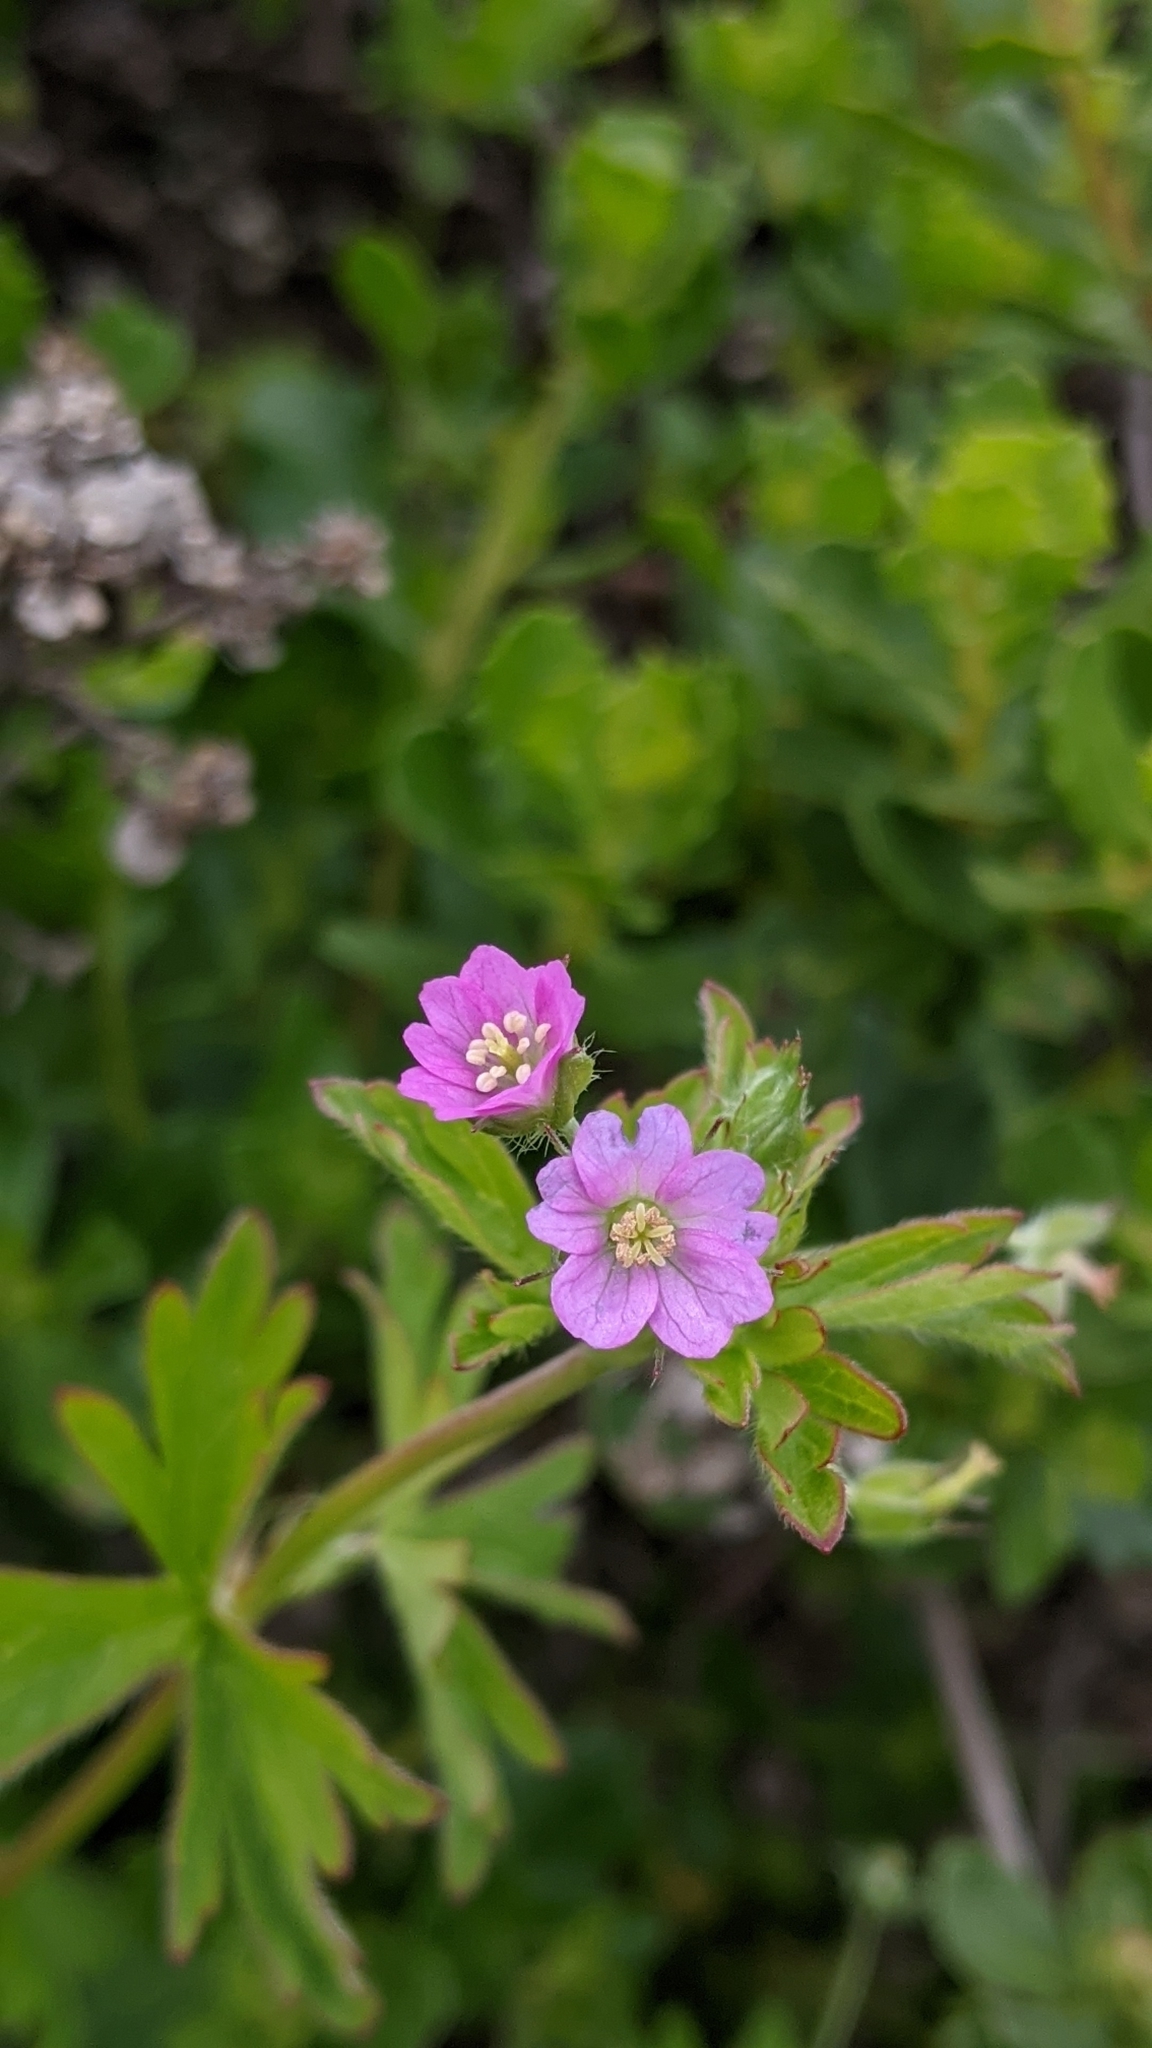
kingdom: Plantae
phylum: Tracheophyta
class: Magnoliopsida
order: Geraniales
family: Geraniaceae
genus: Geranium
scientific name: Geranium core-core
